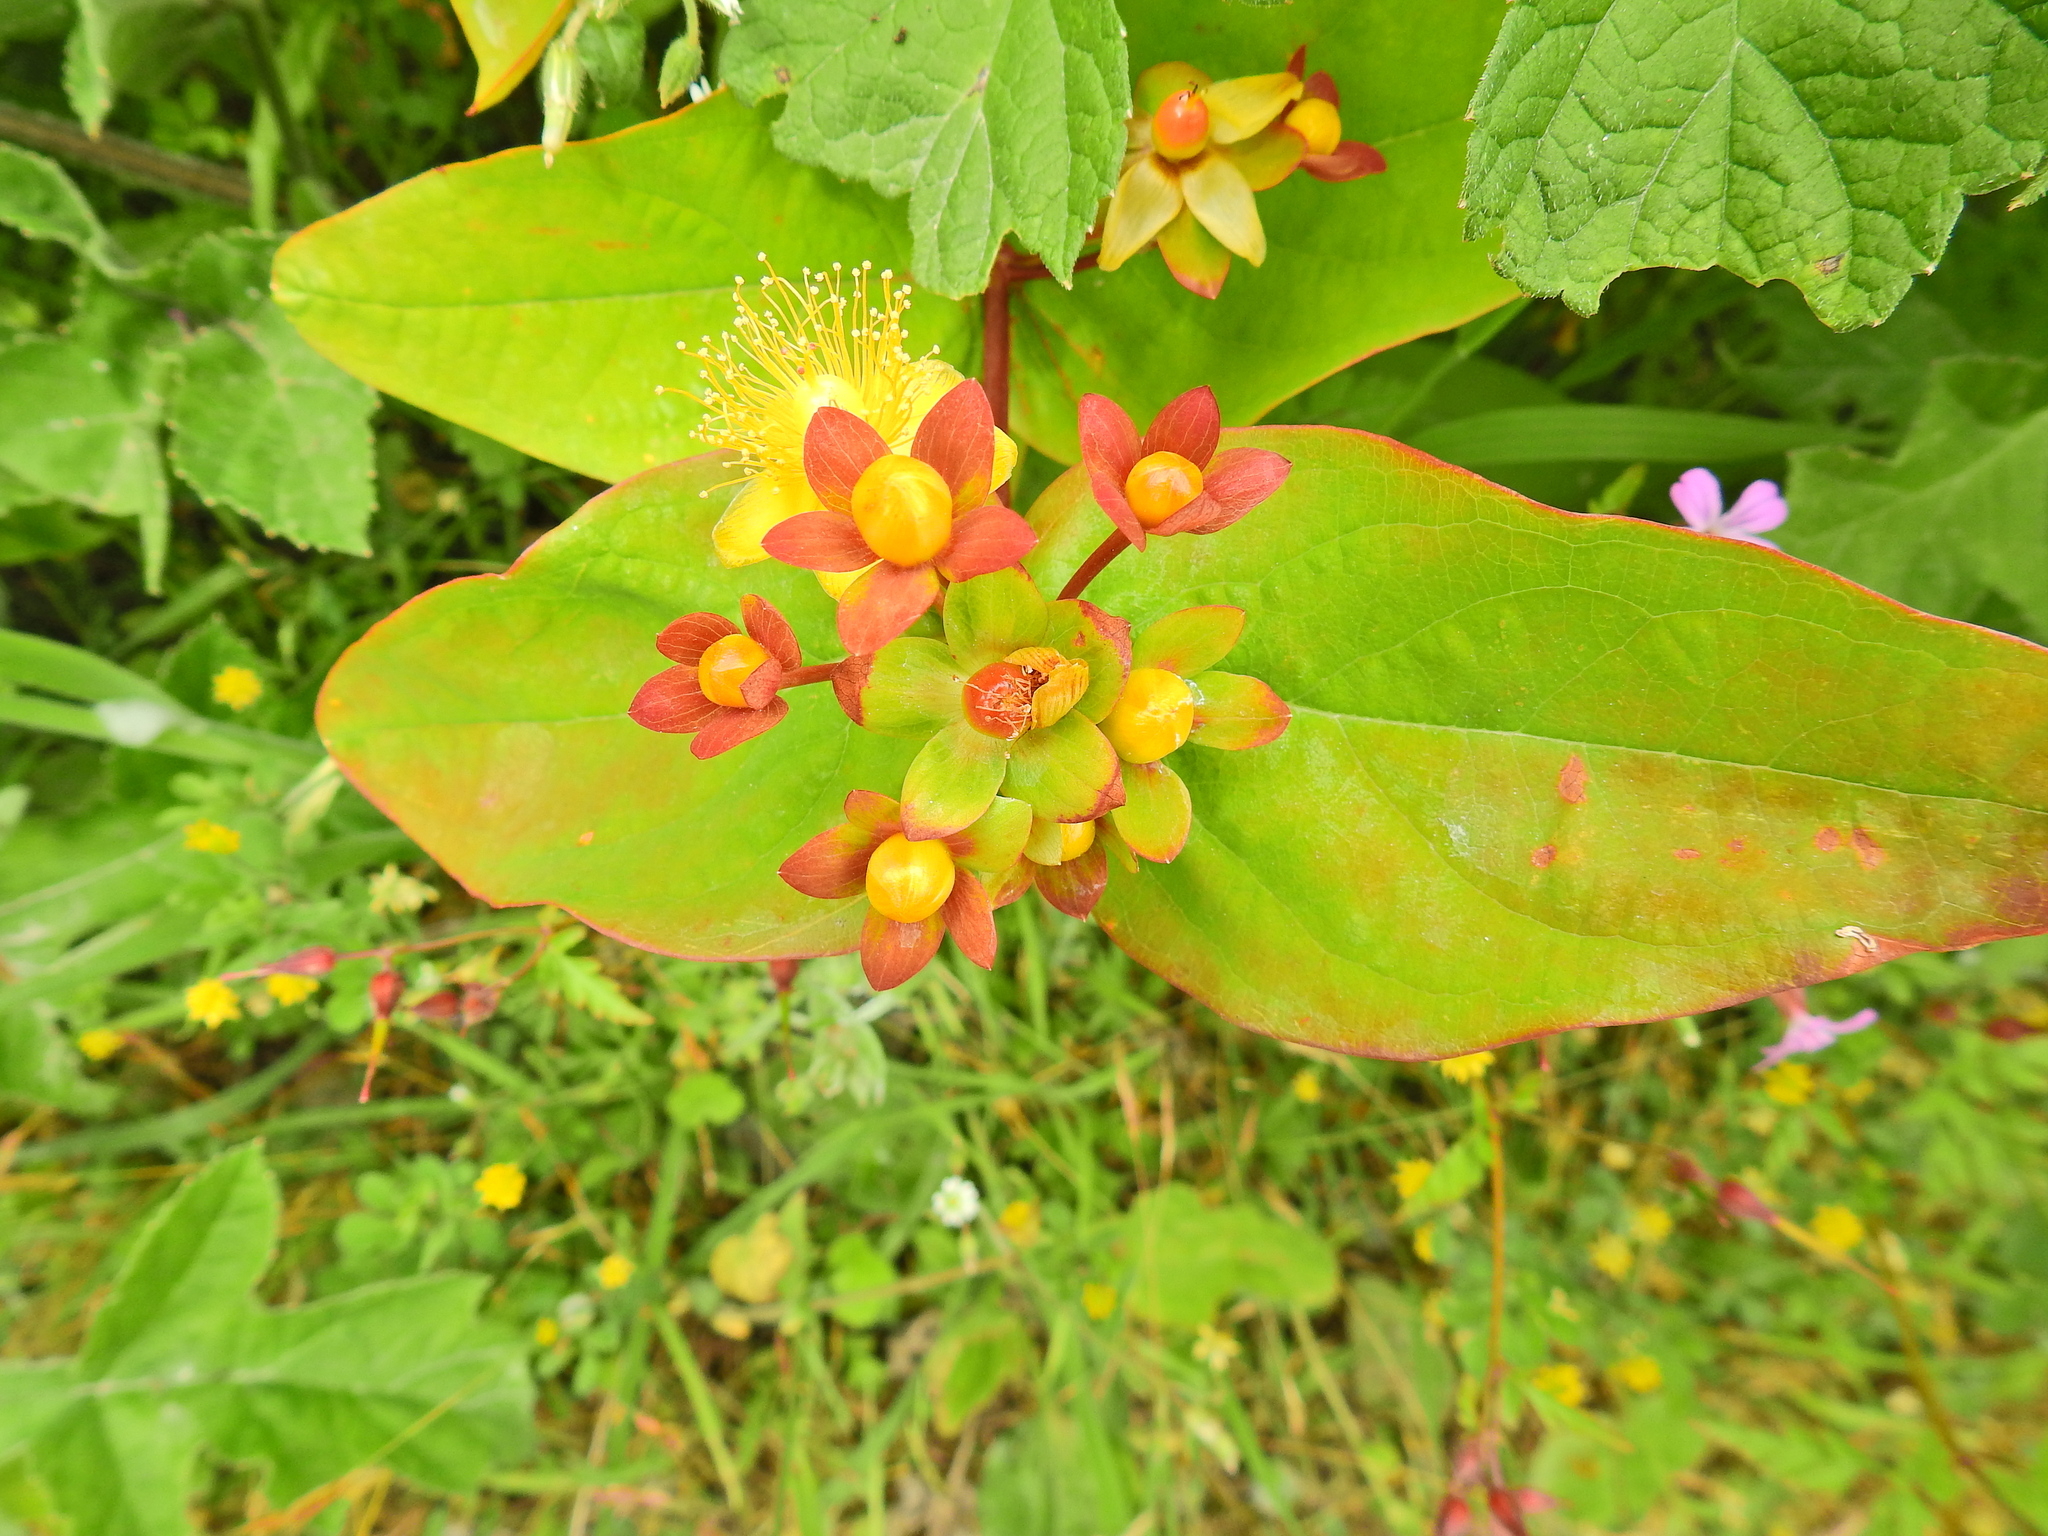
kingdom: Plantae
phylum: Tracheophyta
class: Magnoliopsida
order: Malpighiales
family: Hypericaceae
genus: Hypericum
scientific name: Hypericum androsaemum
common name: Sweet-amber
